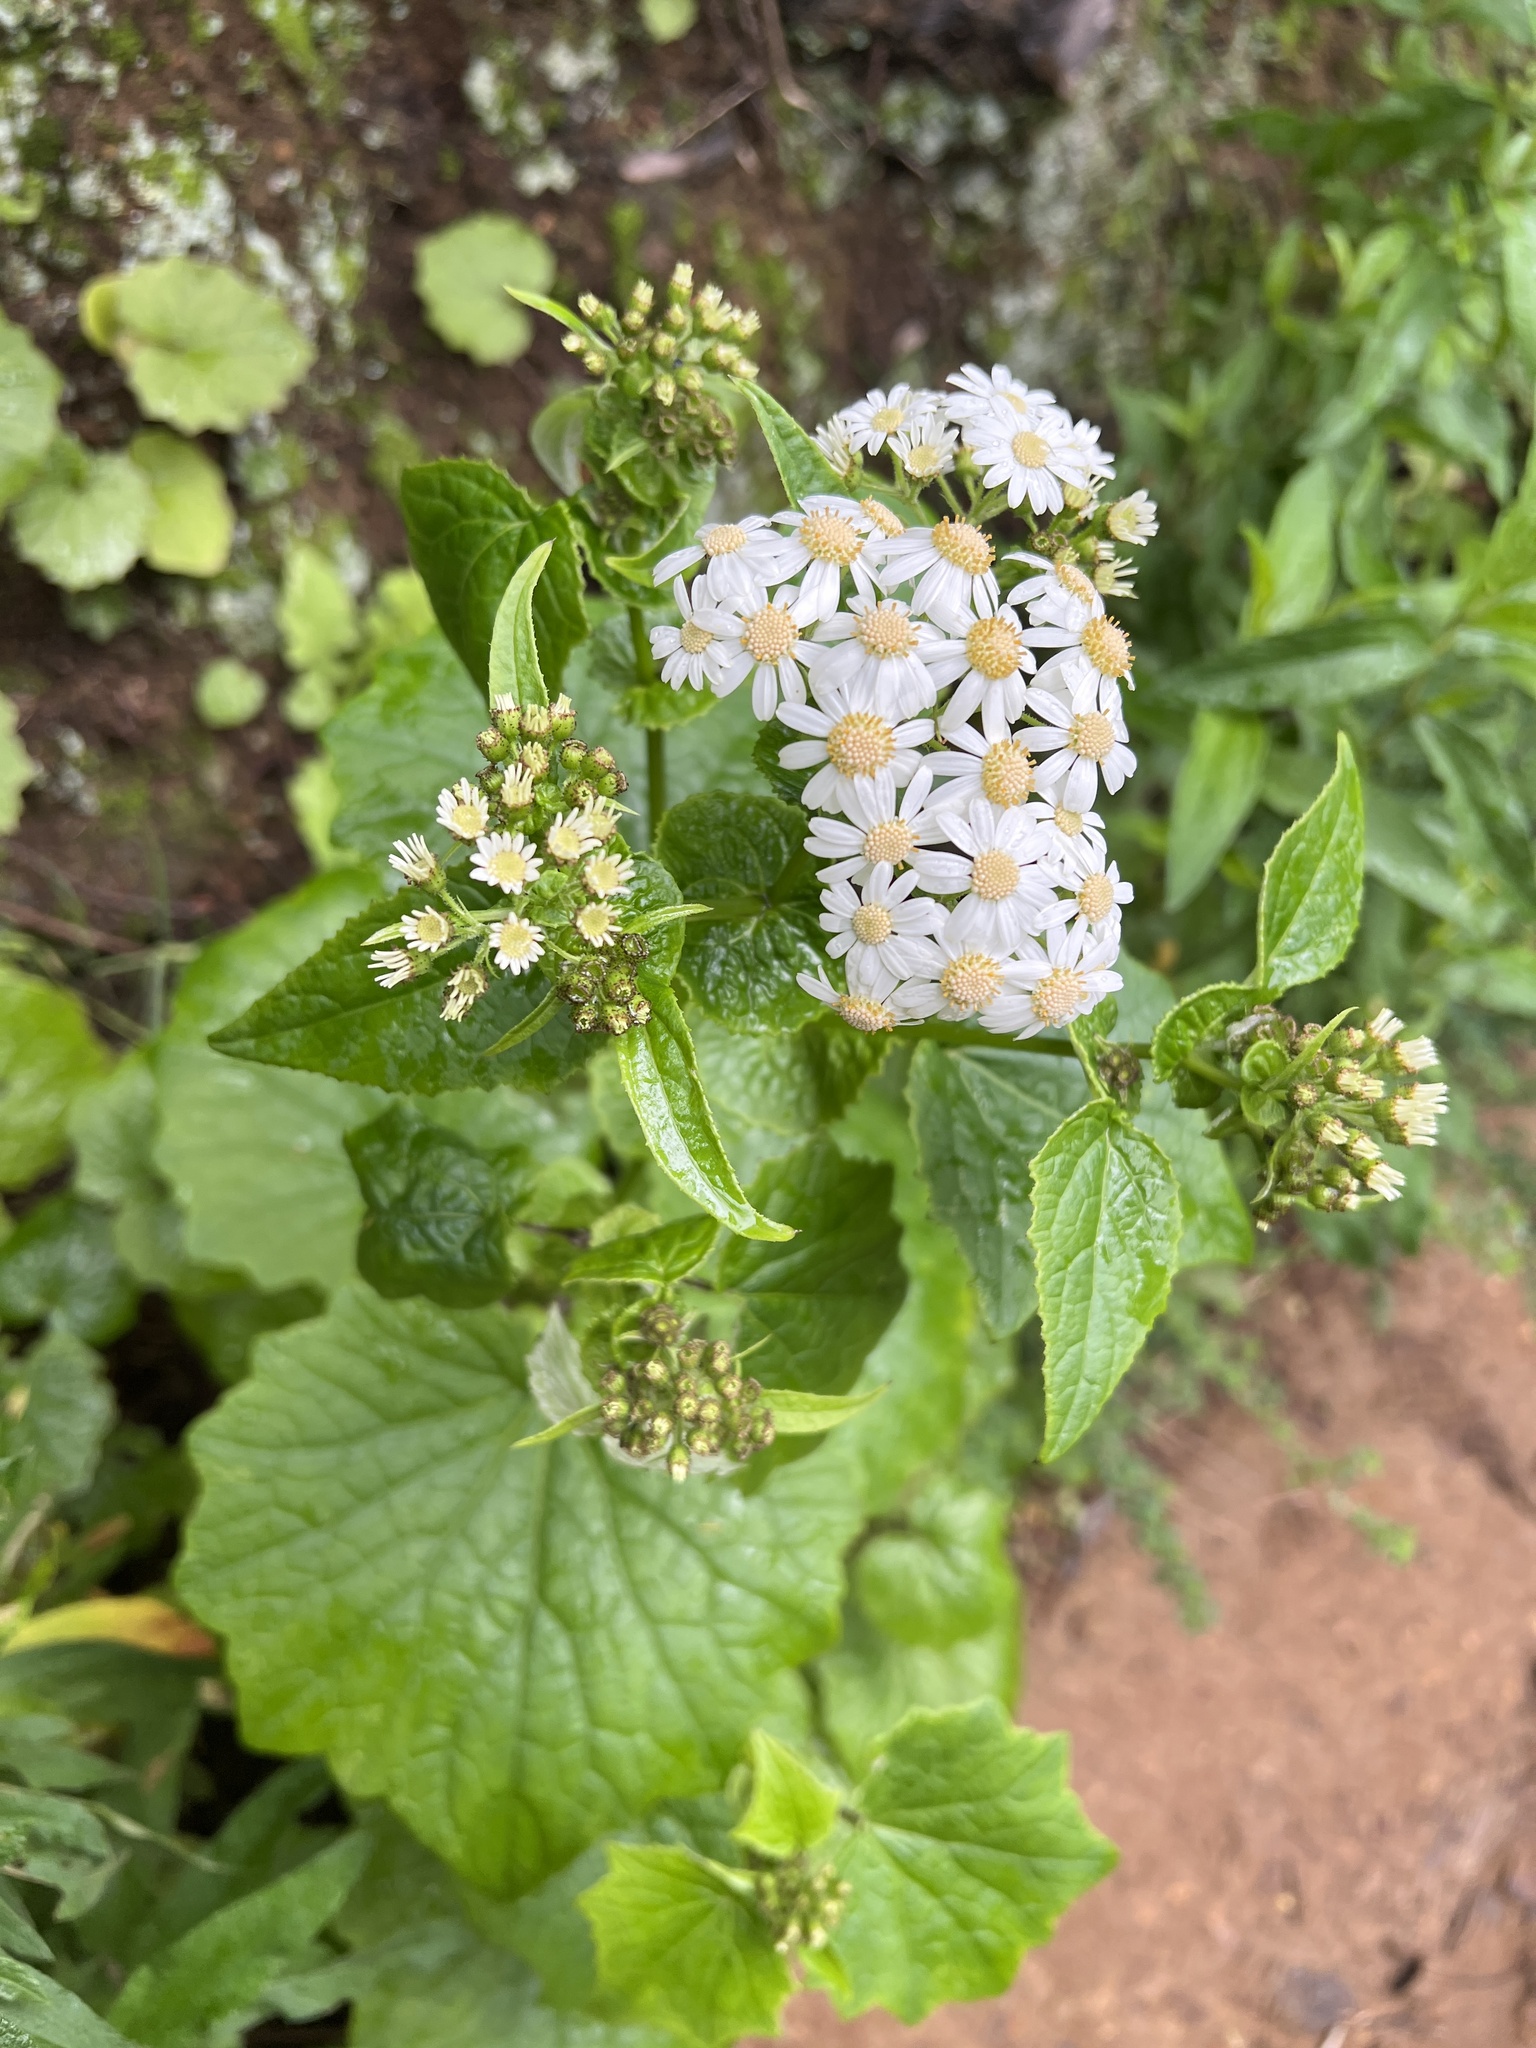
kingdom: Plantae
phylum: Tracheophyta
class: Magnoliopsida
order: Asterales
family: Asteraceae
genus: Pericallis
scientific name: Pericallis steetzii
